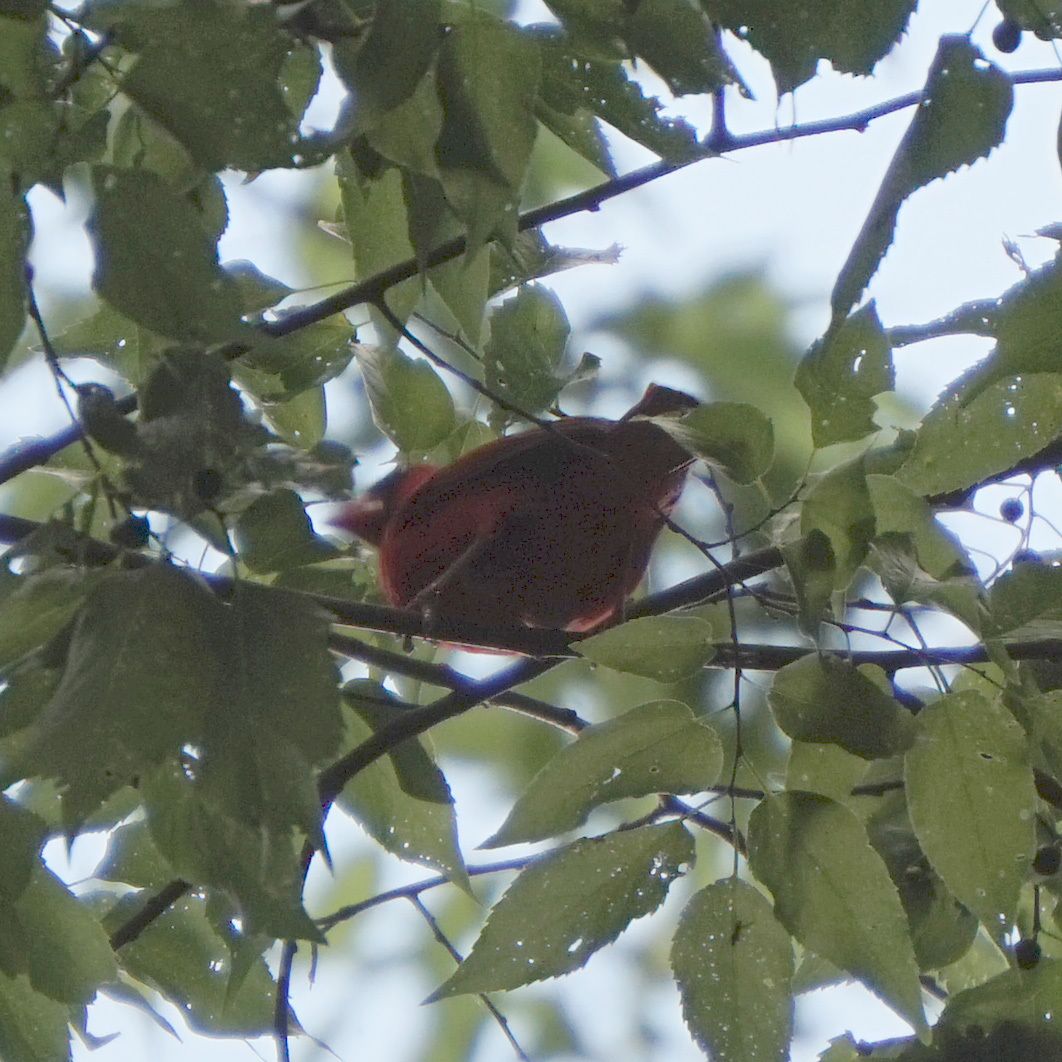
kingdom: Animalia
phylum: Chordata
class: Aves
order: Passeriformes
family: Cardinalidae
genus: Cardinalis
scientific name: Cardinalis cardinalis
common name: Northern cardinal
